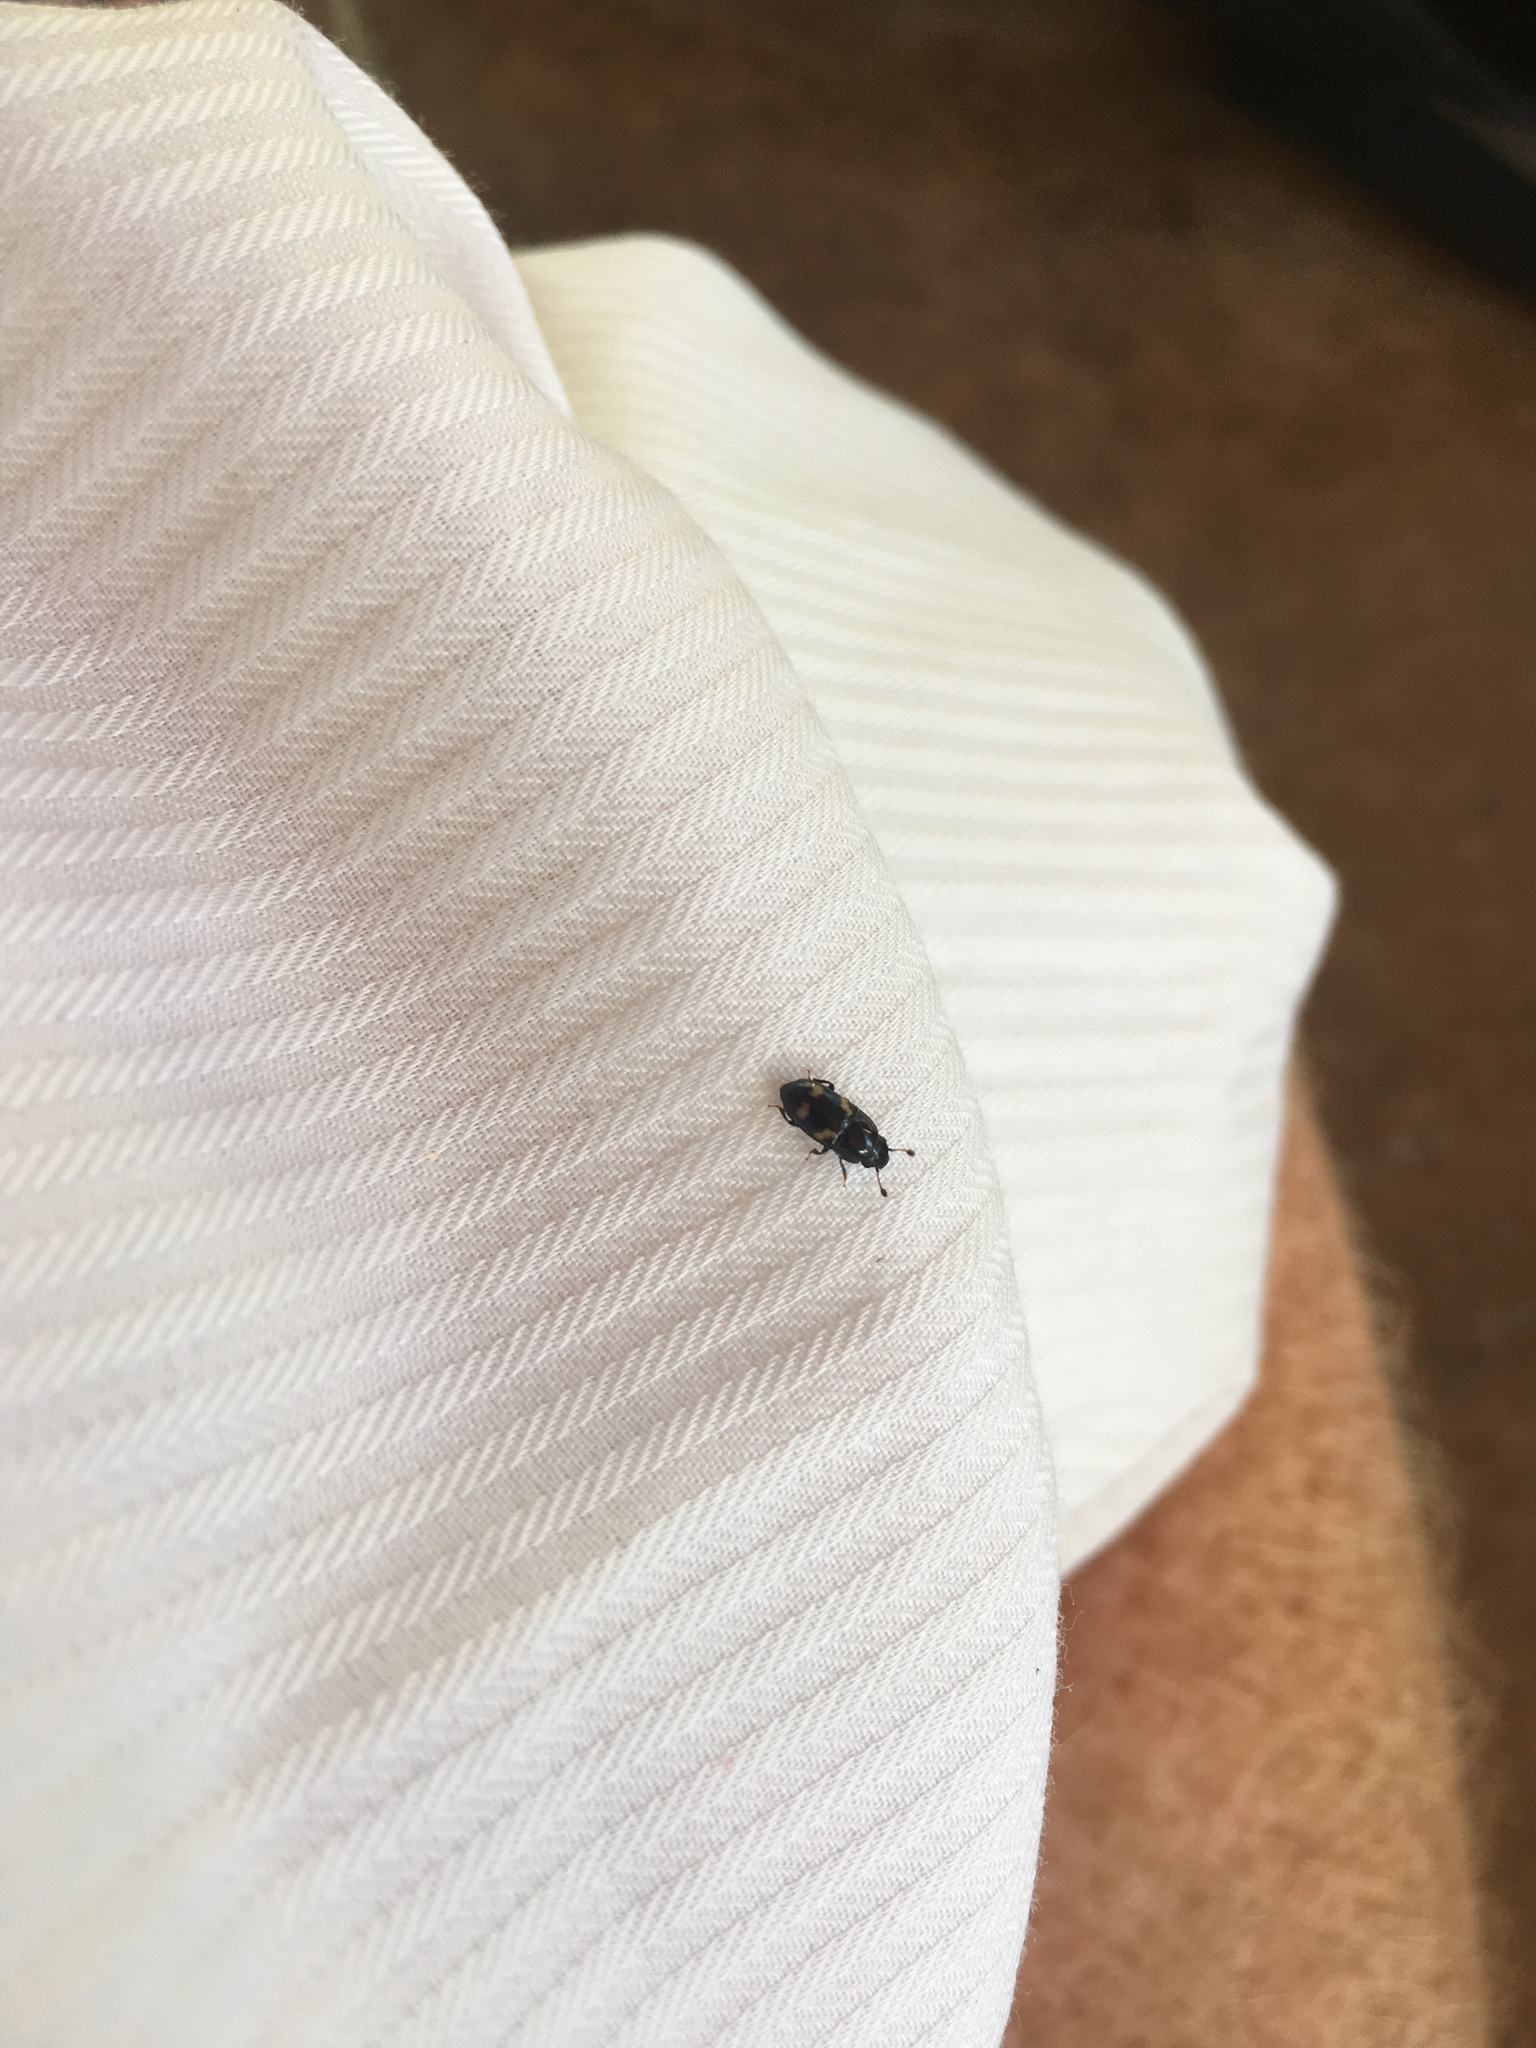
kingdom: Animalia
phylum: Arthropoda
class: Insecta
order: Coleoptera
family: Nitidulidae
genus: Glischrochilus
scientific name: Glischrochilus quadrisignatus
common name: Picnic beetle
